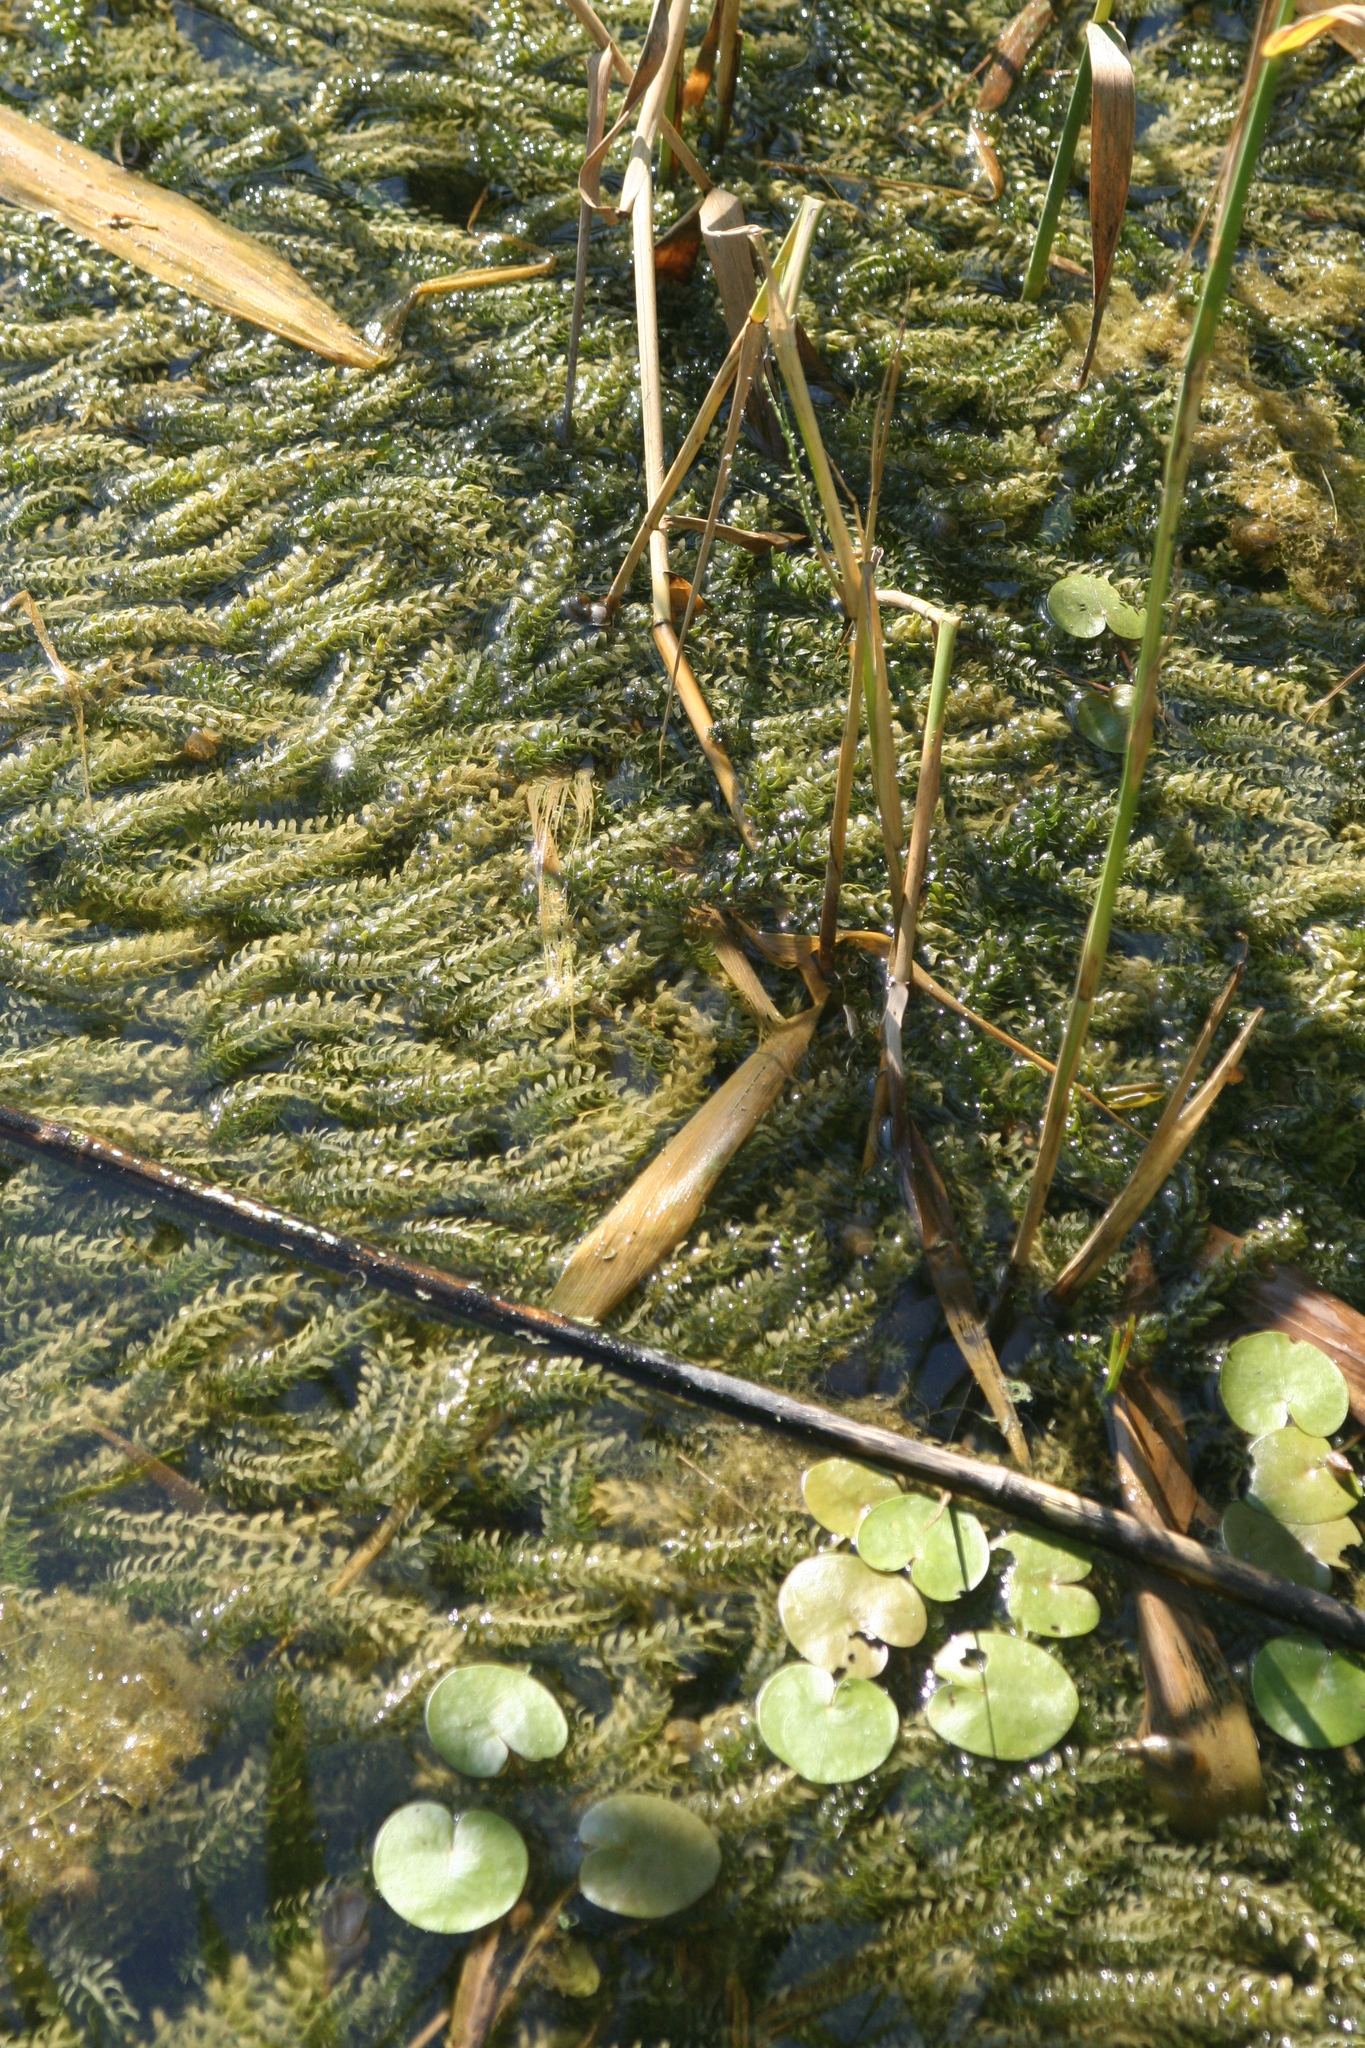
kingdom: Plantae
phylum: Tracheophyta
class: Liliopsida
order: Alismatales
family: Hydrocharitaceae
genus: Elodea
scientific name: Elodea canadensis
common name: Canadian waterweed
